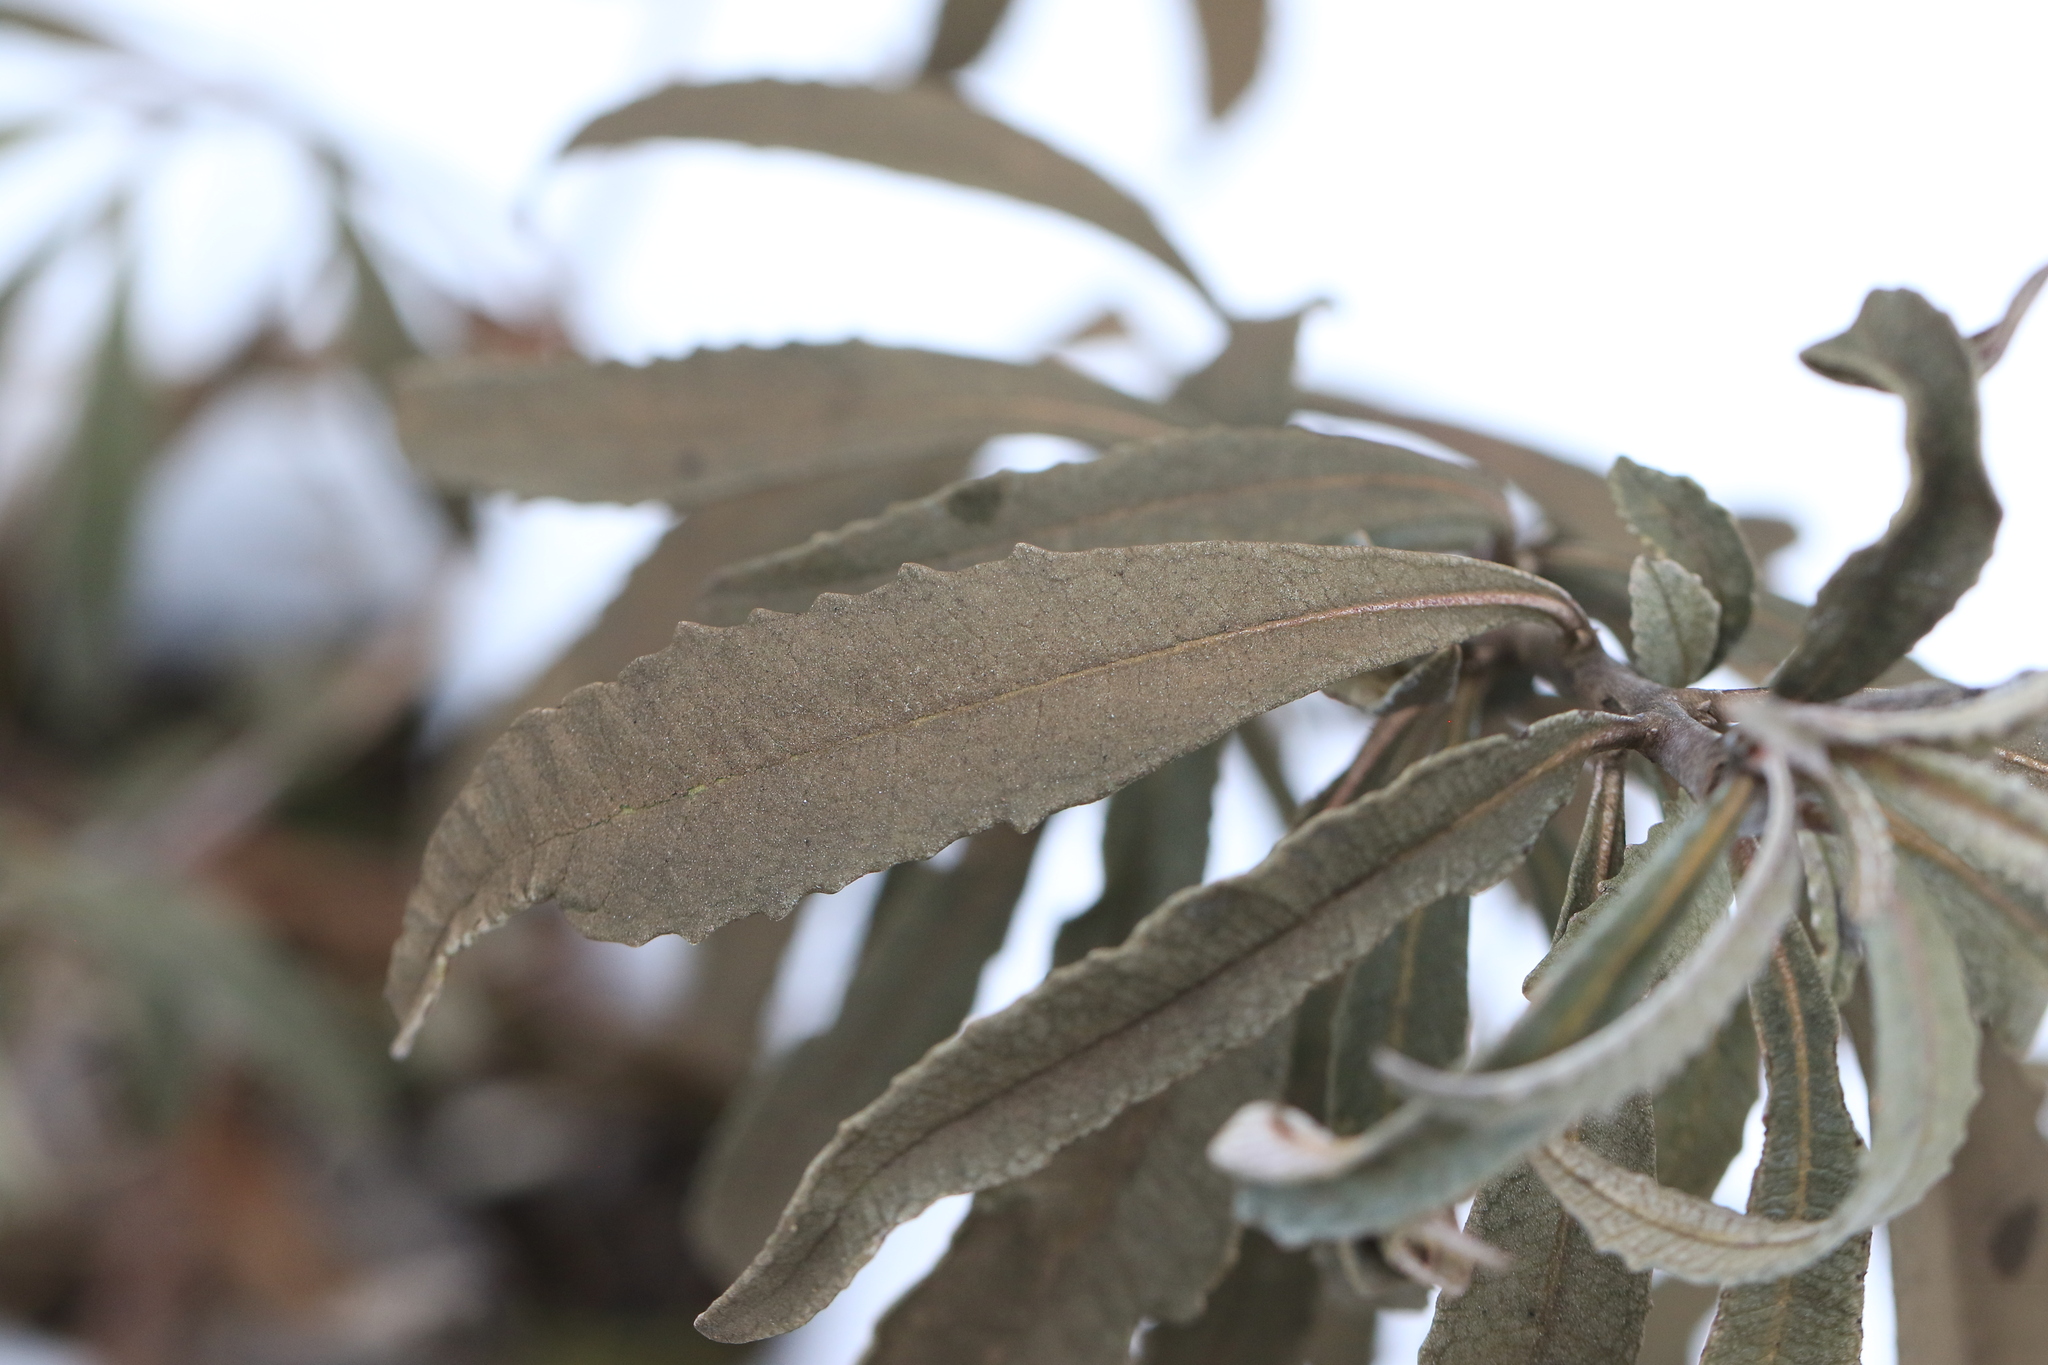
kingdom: Plantae
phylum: Tracheophyta
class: Magnoliopsida
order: Boraginales
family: Namaceae
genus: Eriodictyon
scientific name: Eriodictyon californicum
